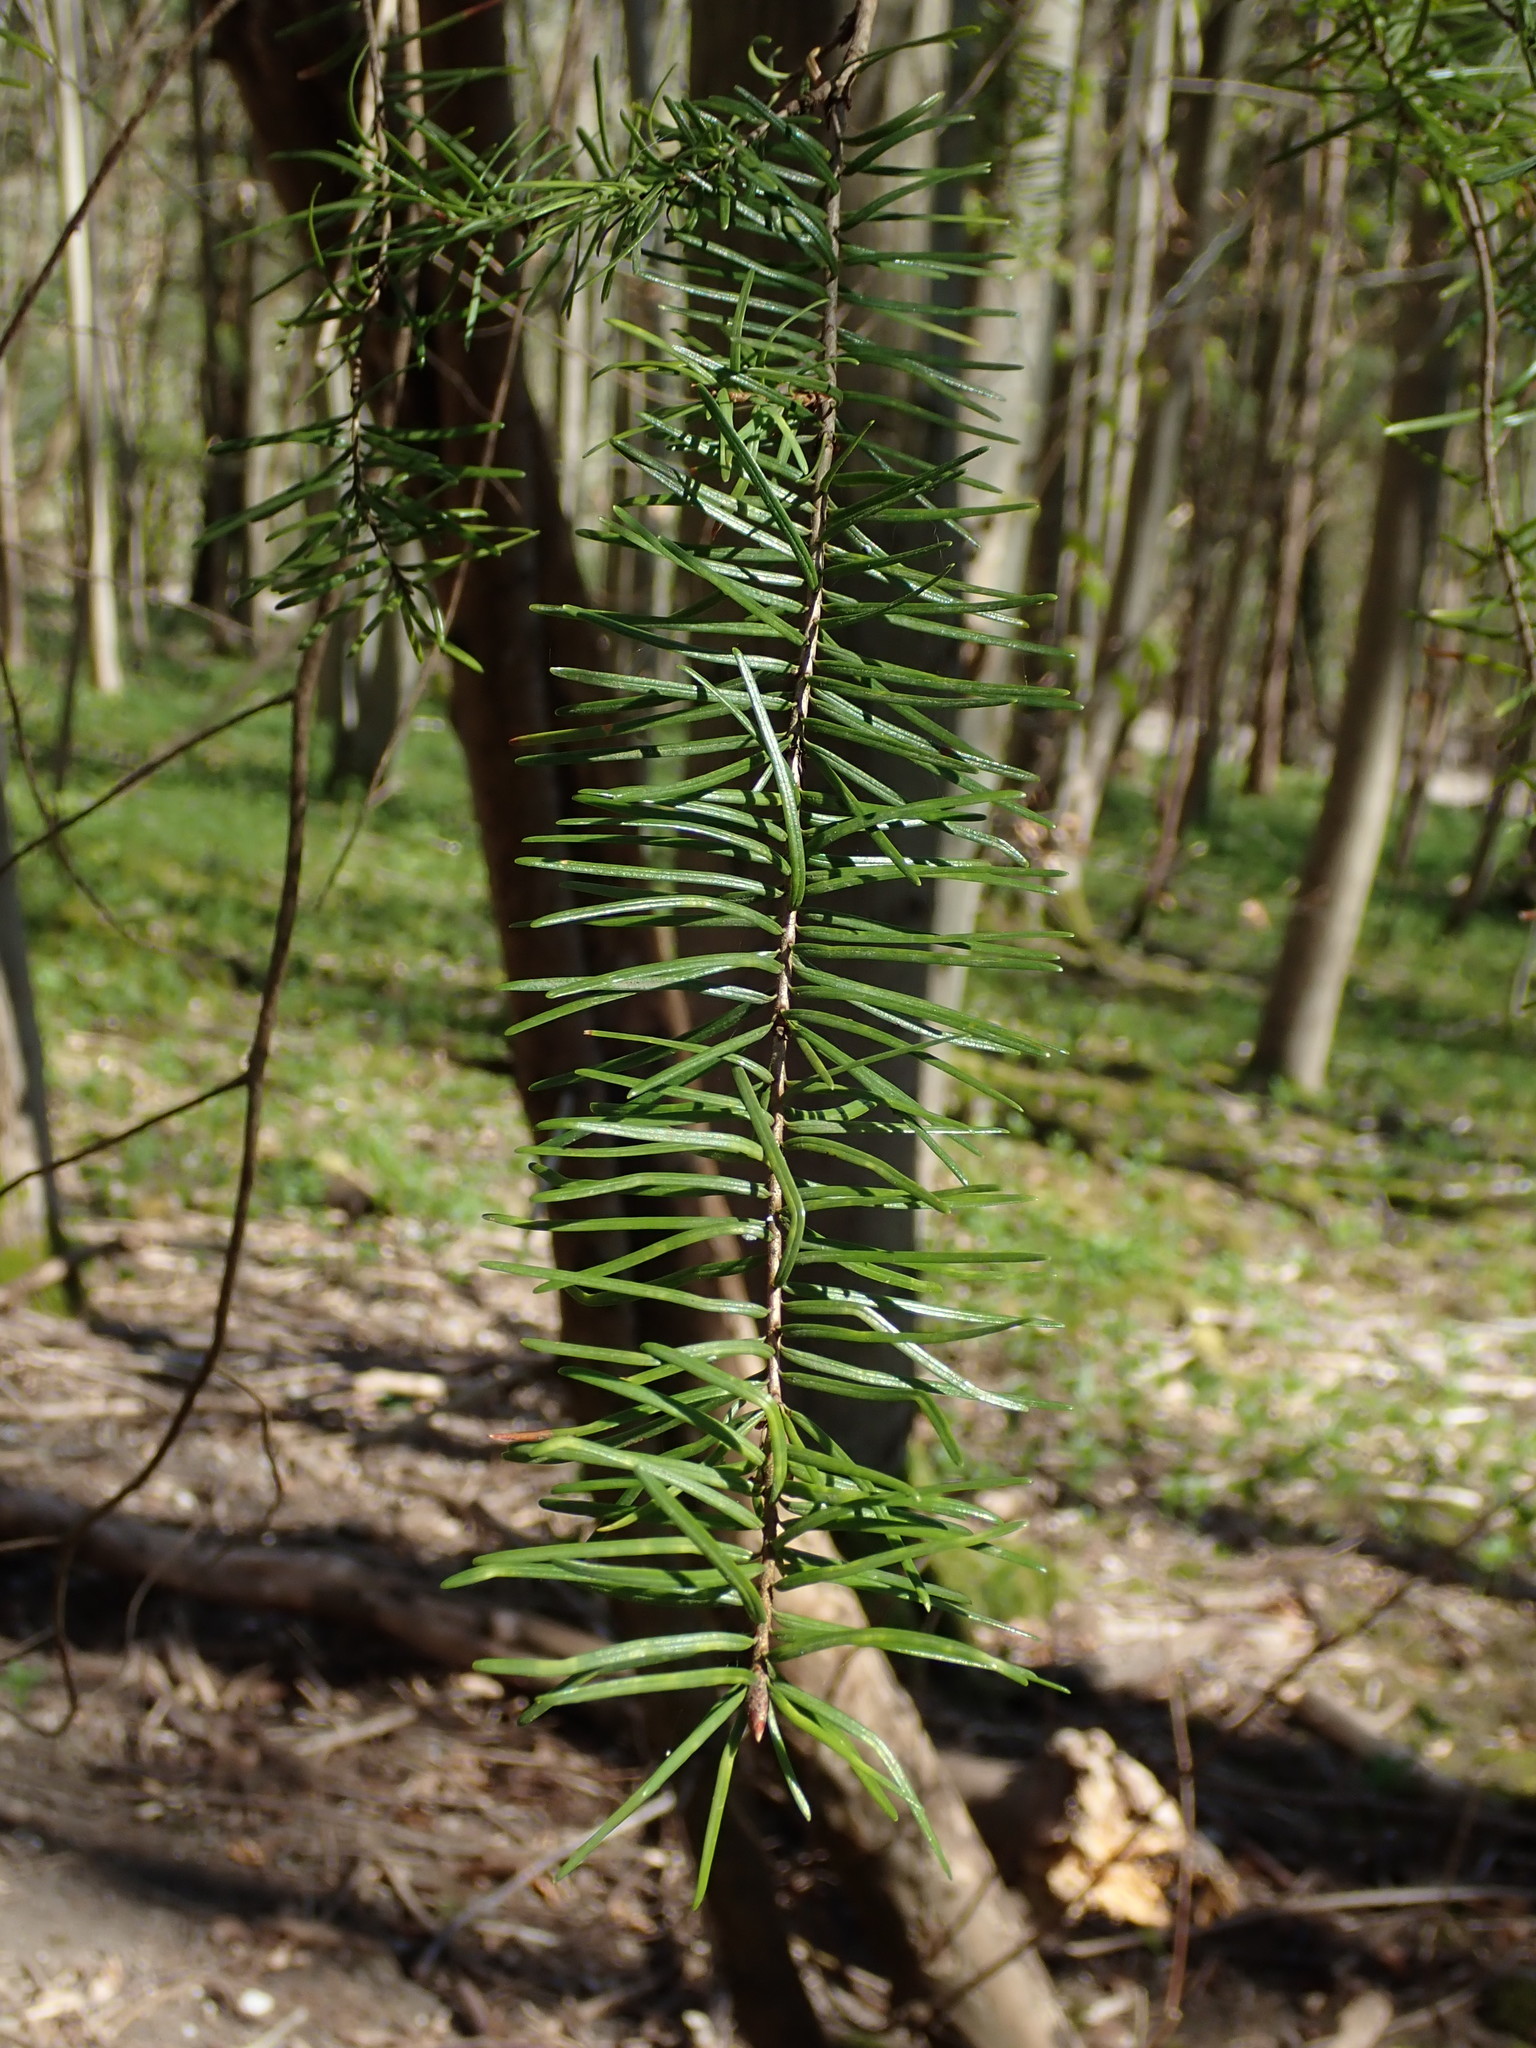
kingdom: Plantae
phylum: Tracheophyta
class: Pinopsida
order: Pinales
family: Pinaceae
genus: Pseudotsuga
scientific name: Pseudotsuga menziesii
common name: Douglas fir
